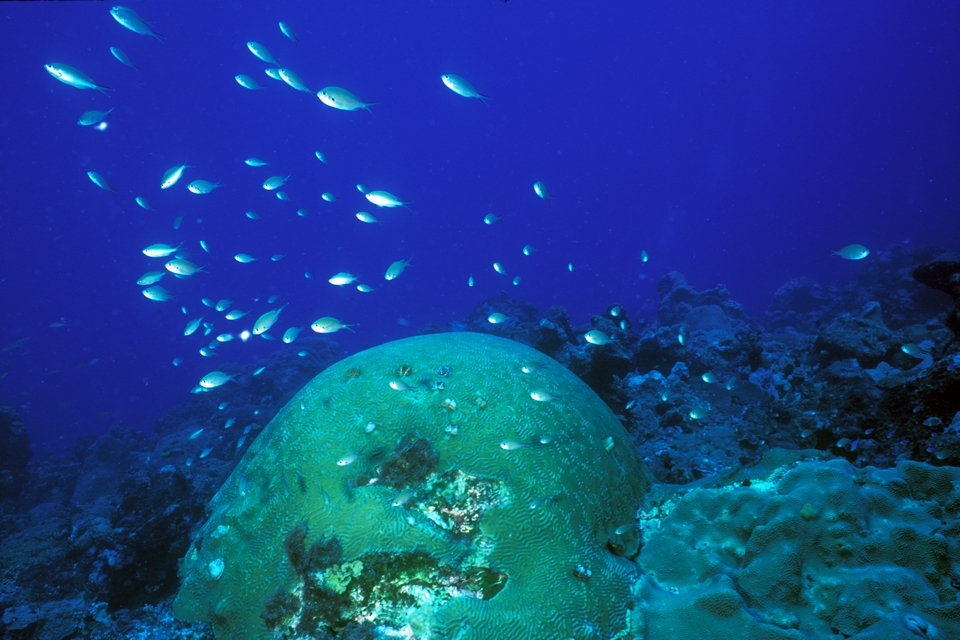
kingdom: Animalia
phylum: Chordata
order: Perciformes
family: Pomacentridae
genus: Chromis
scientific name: Chromis multilineata
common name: Brown chromis
